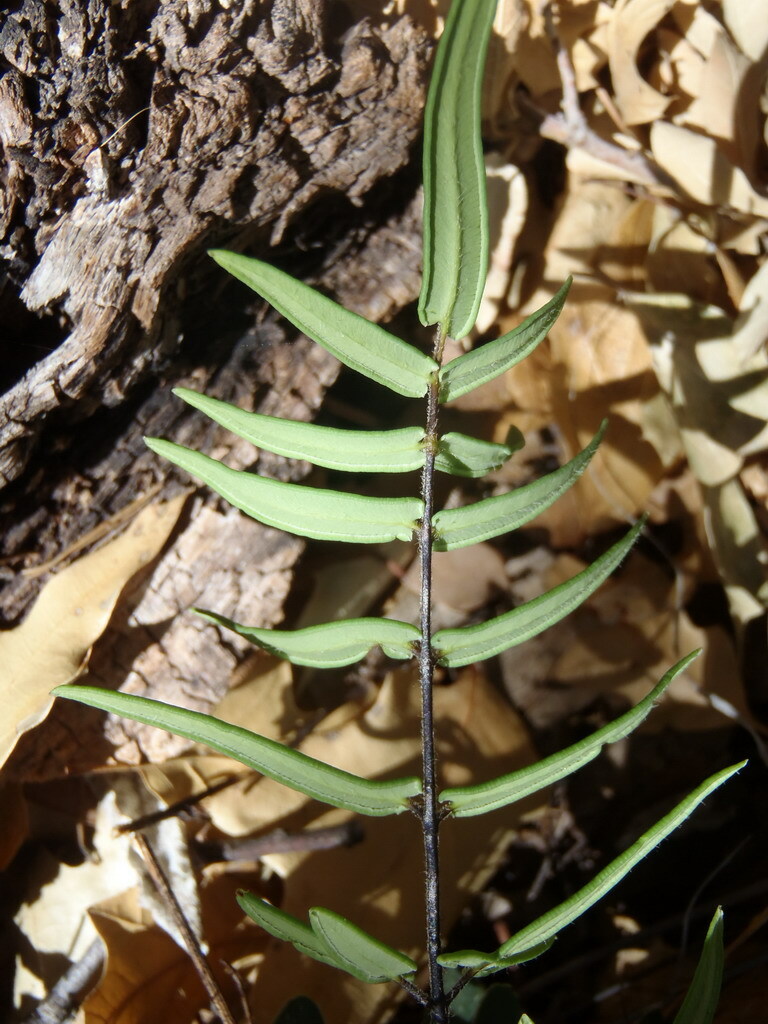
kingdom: Plantae
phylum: Tracheophyta
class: Polypodiopsida
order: Polypodiales
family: Pteridaceae
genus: Pellaea
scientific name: Pellaea atropurpurea
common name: Hairy cliffbrake
